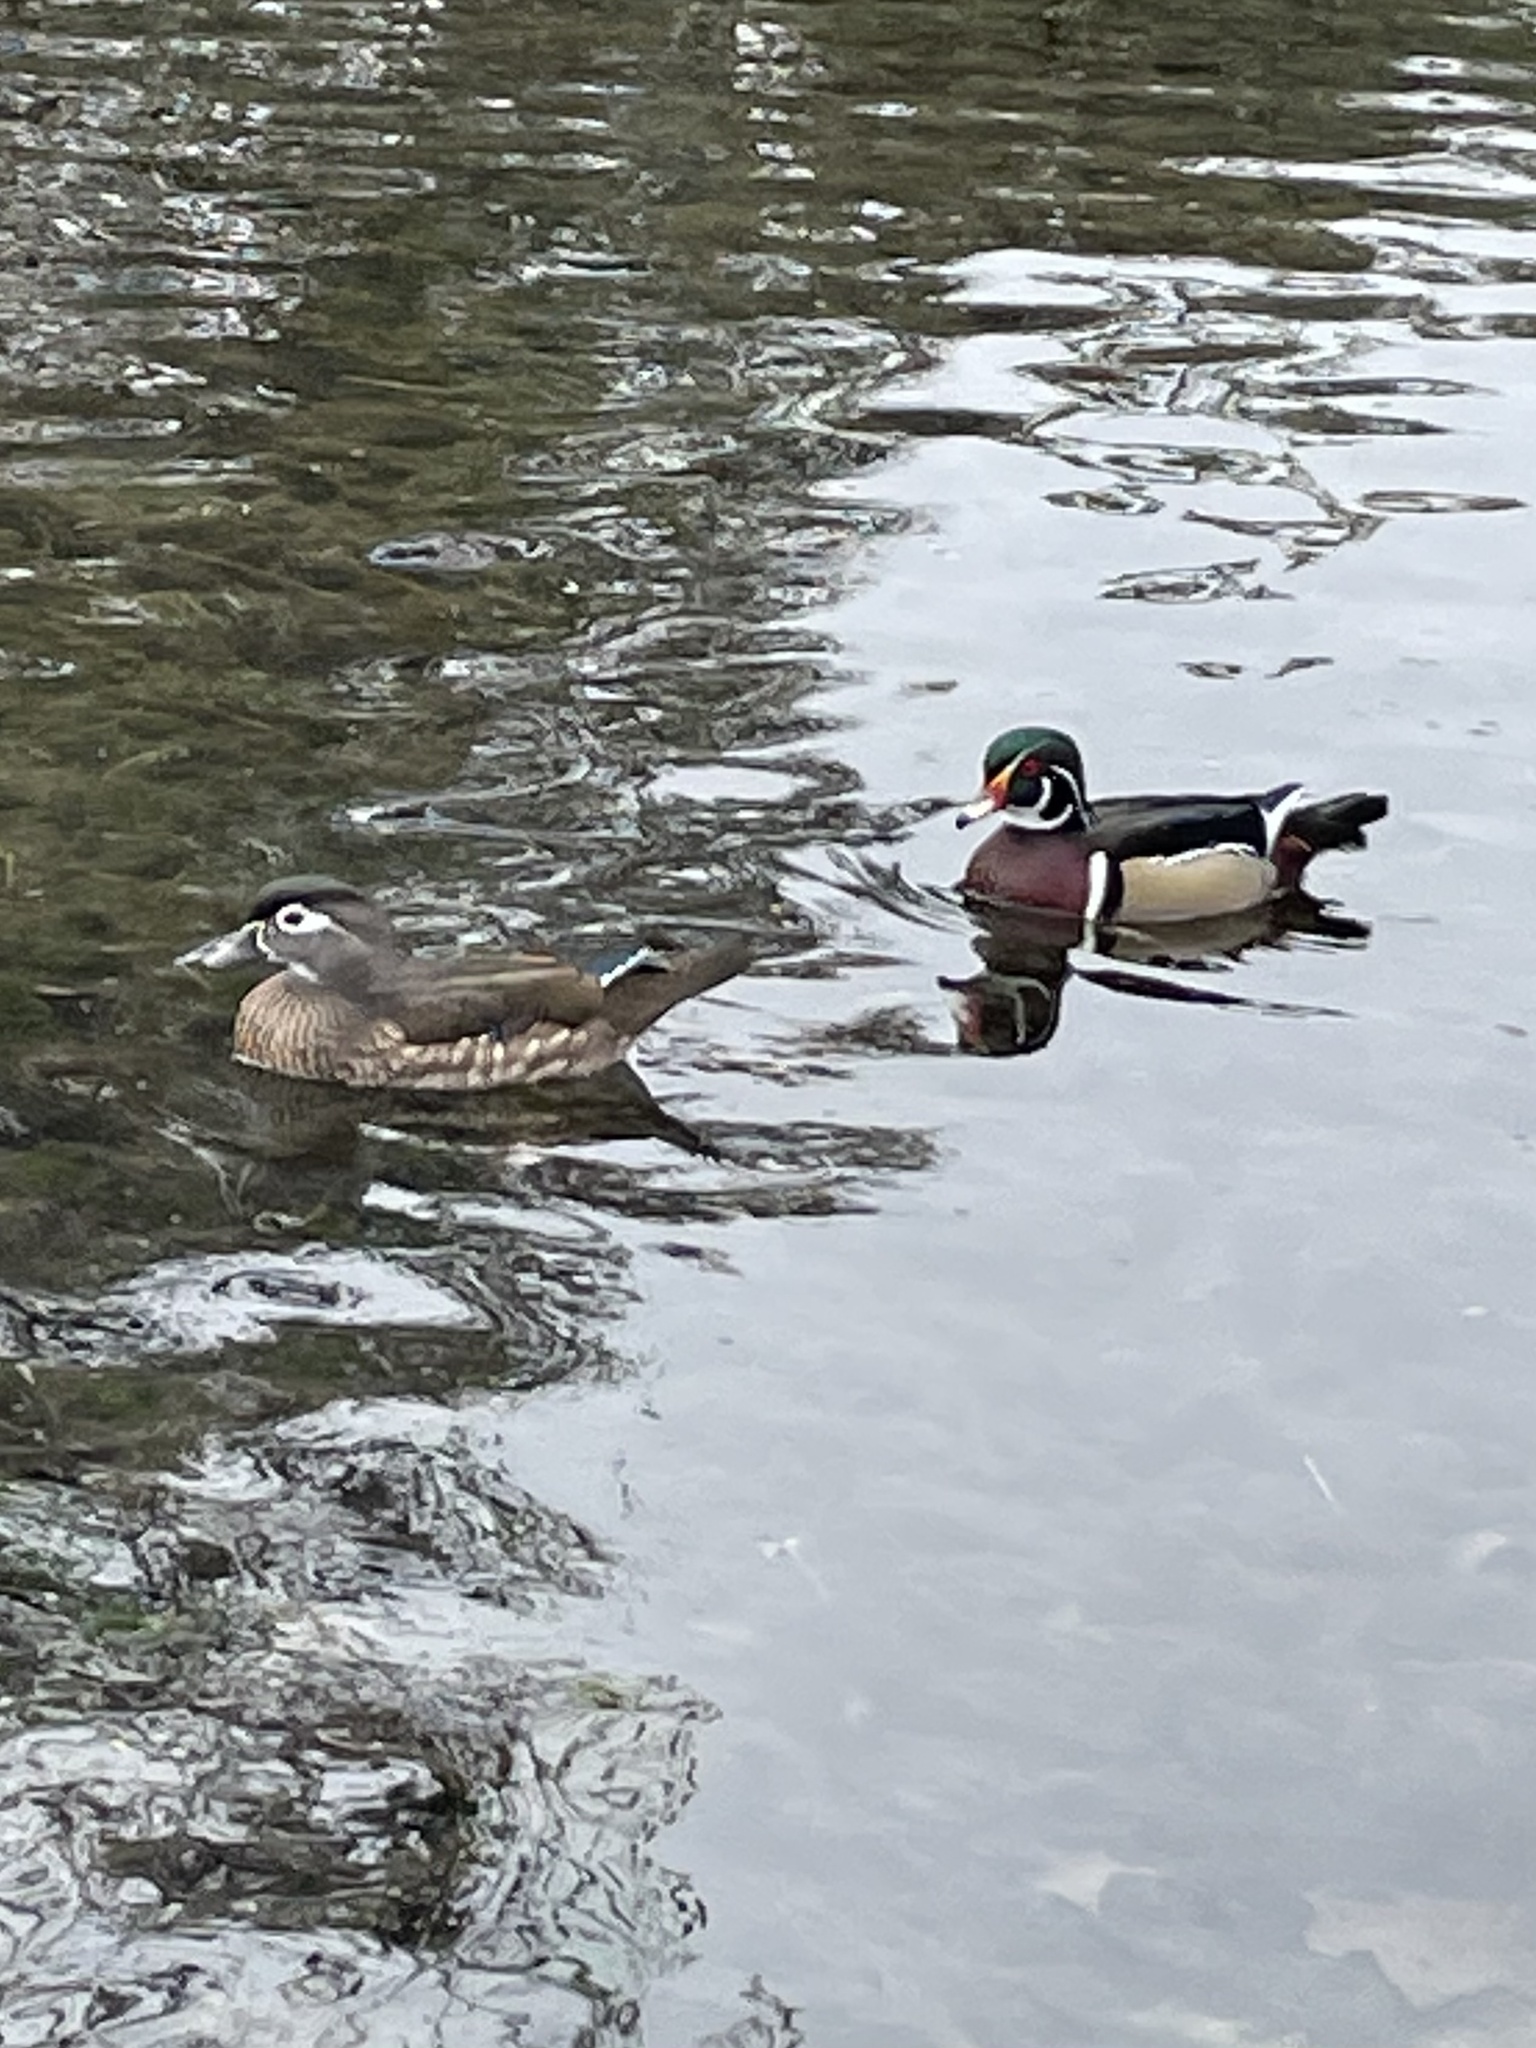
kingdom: Animalia
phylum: Chordata
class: Aves
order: Anseriformes
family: Anatidae
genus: Aix
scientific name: Aix sponsa
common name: Wood duck
